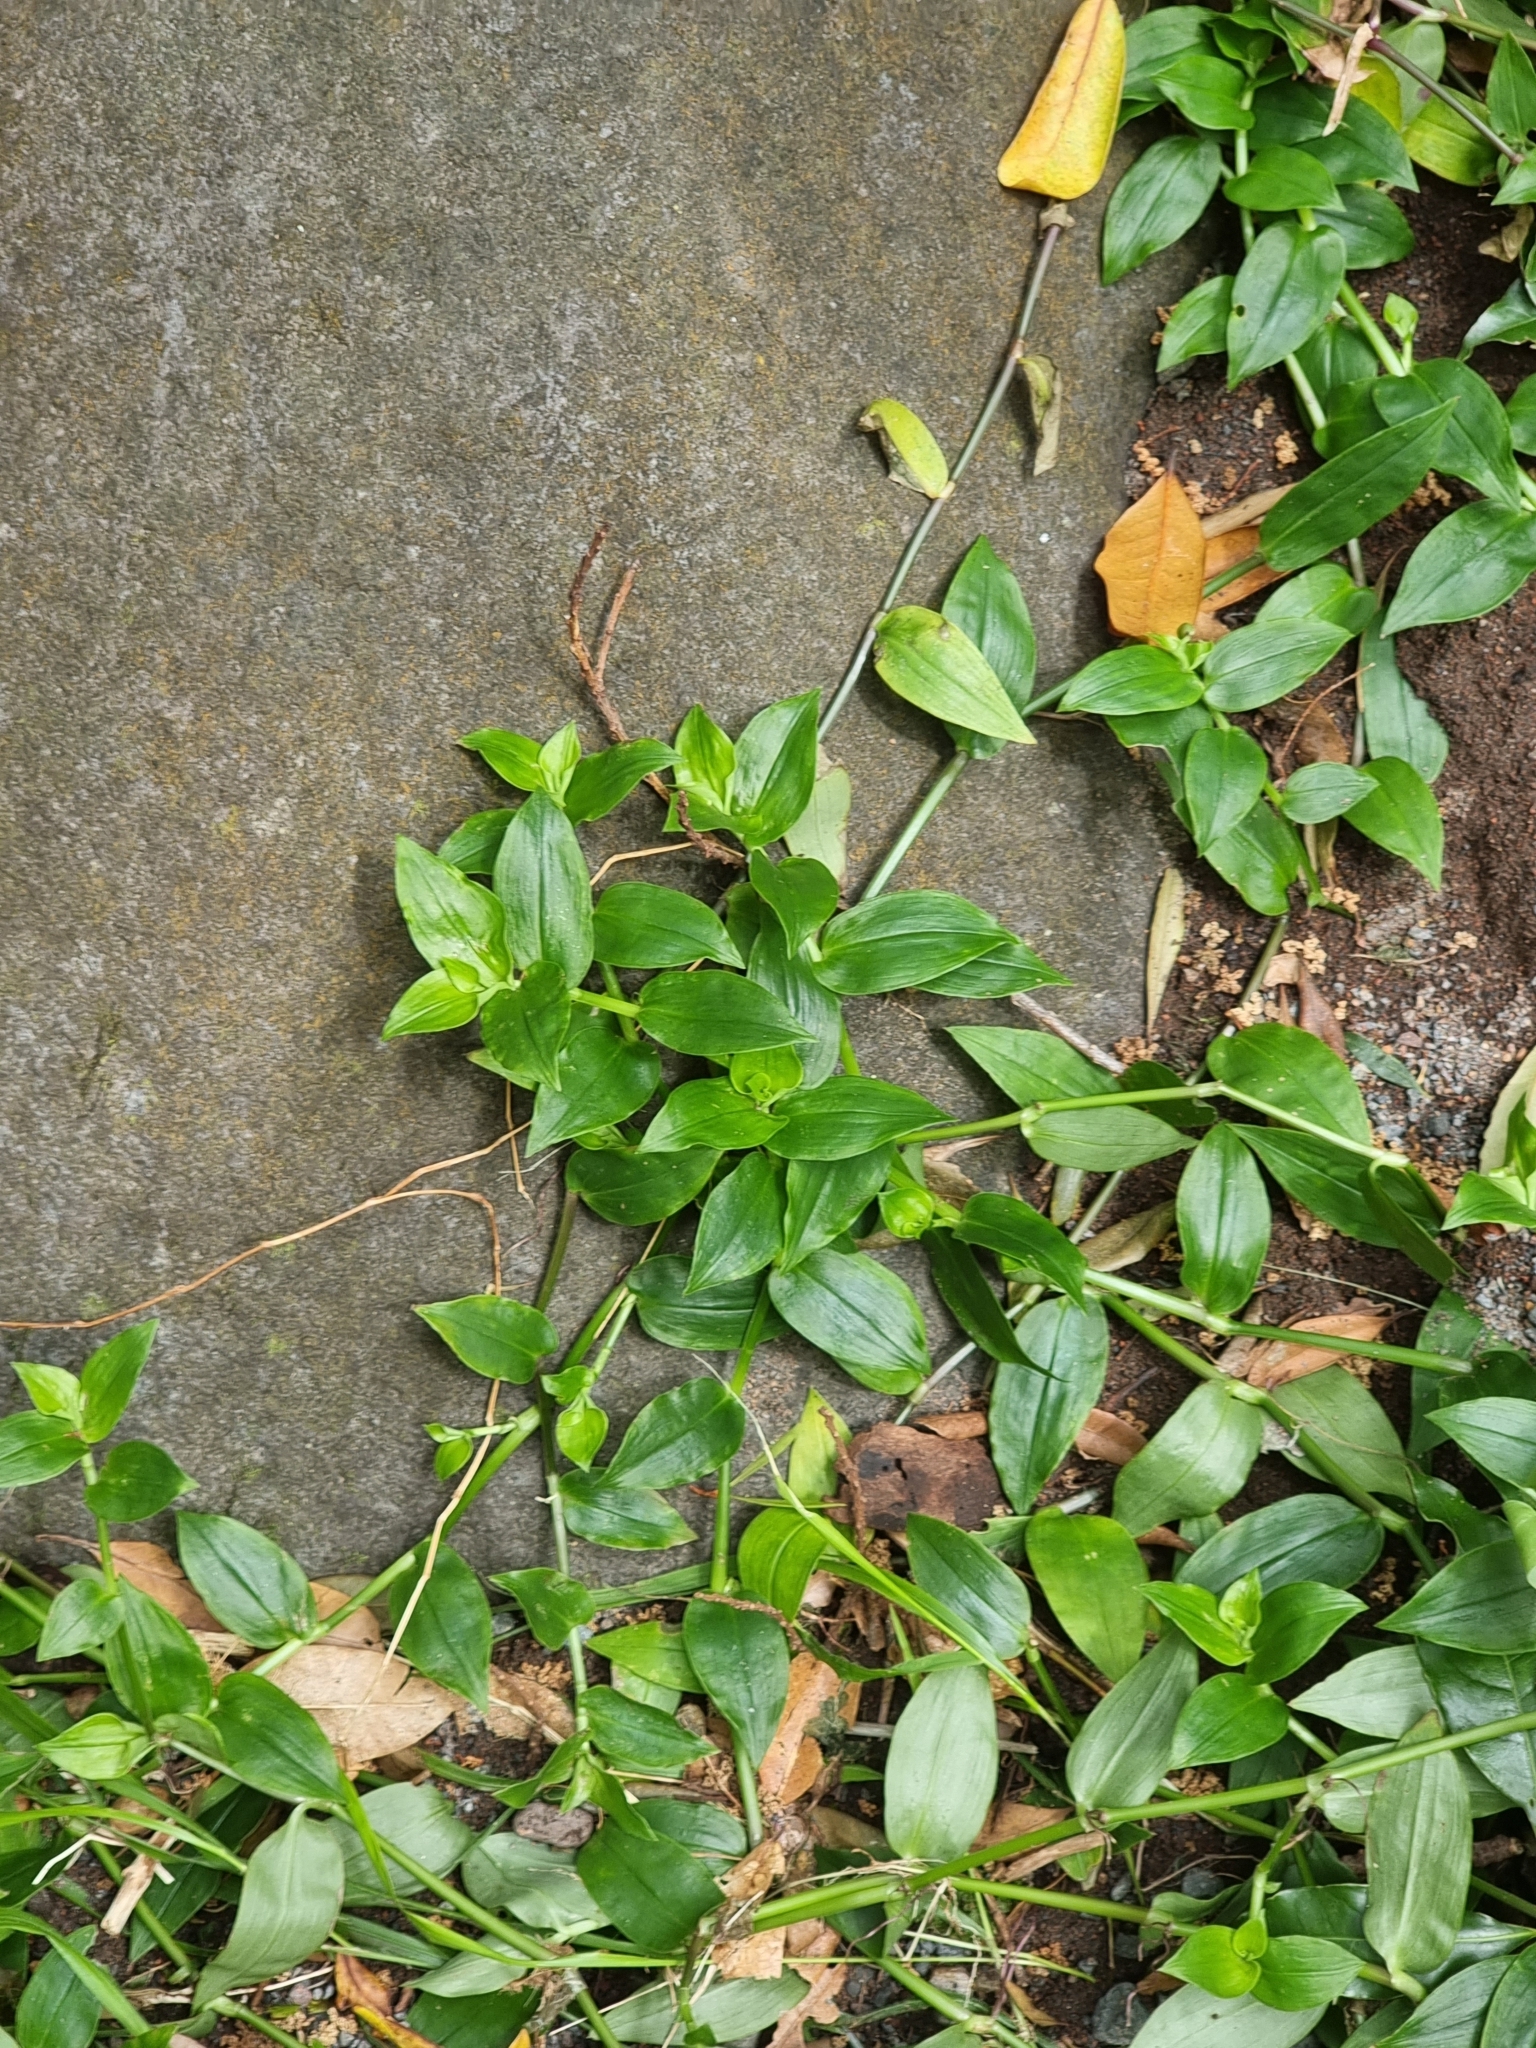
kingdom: Plantae
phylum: Tracheophyta
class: Liliopsida
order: Commelinales
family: Commelinaceae
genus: Tradescantia
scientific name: Tradescantia fluminensis
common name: Wandering-jew
